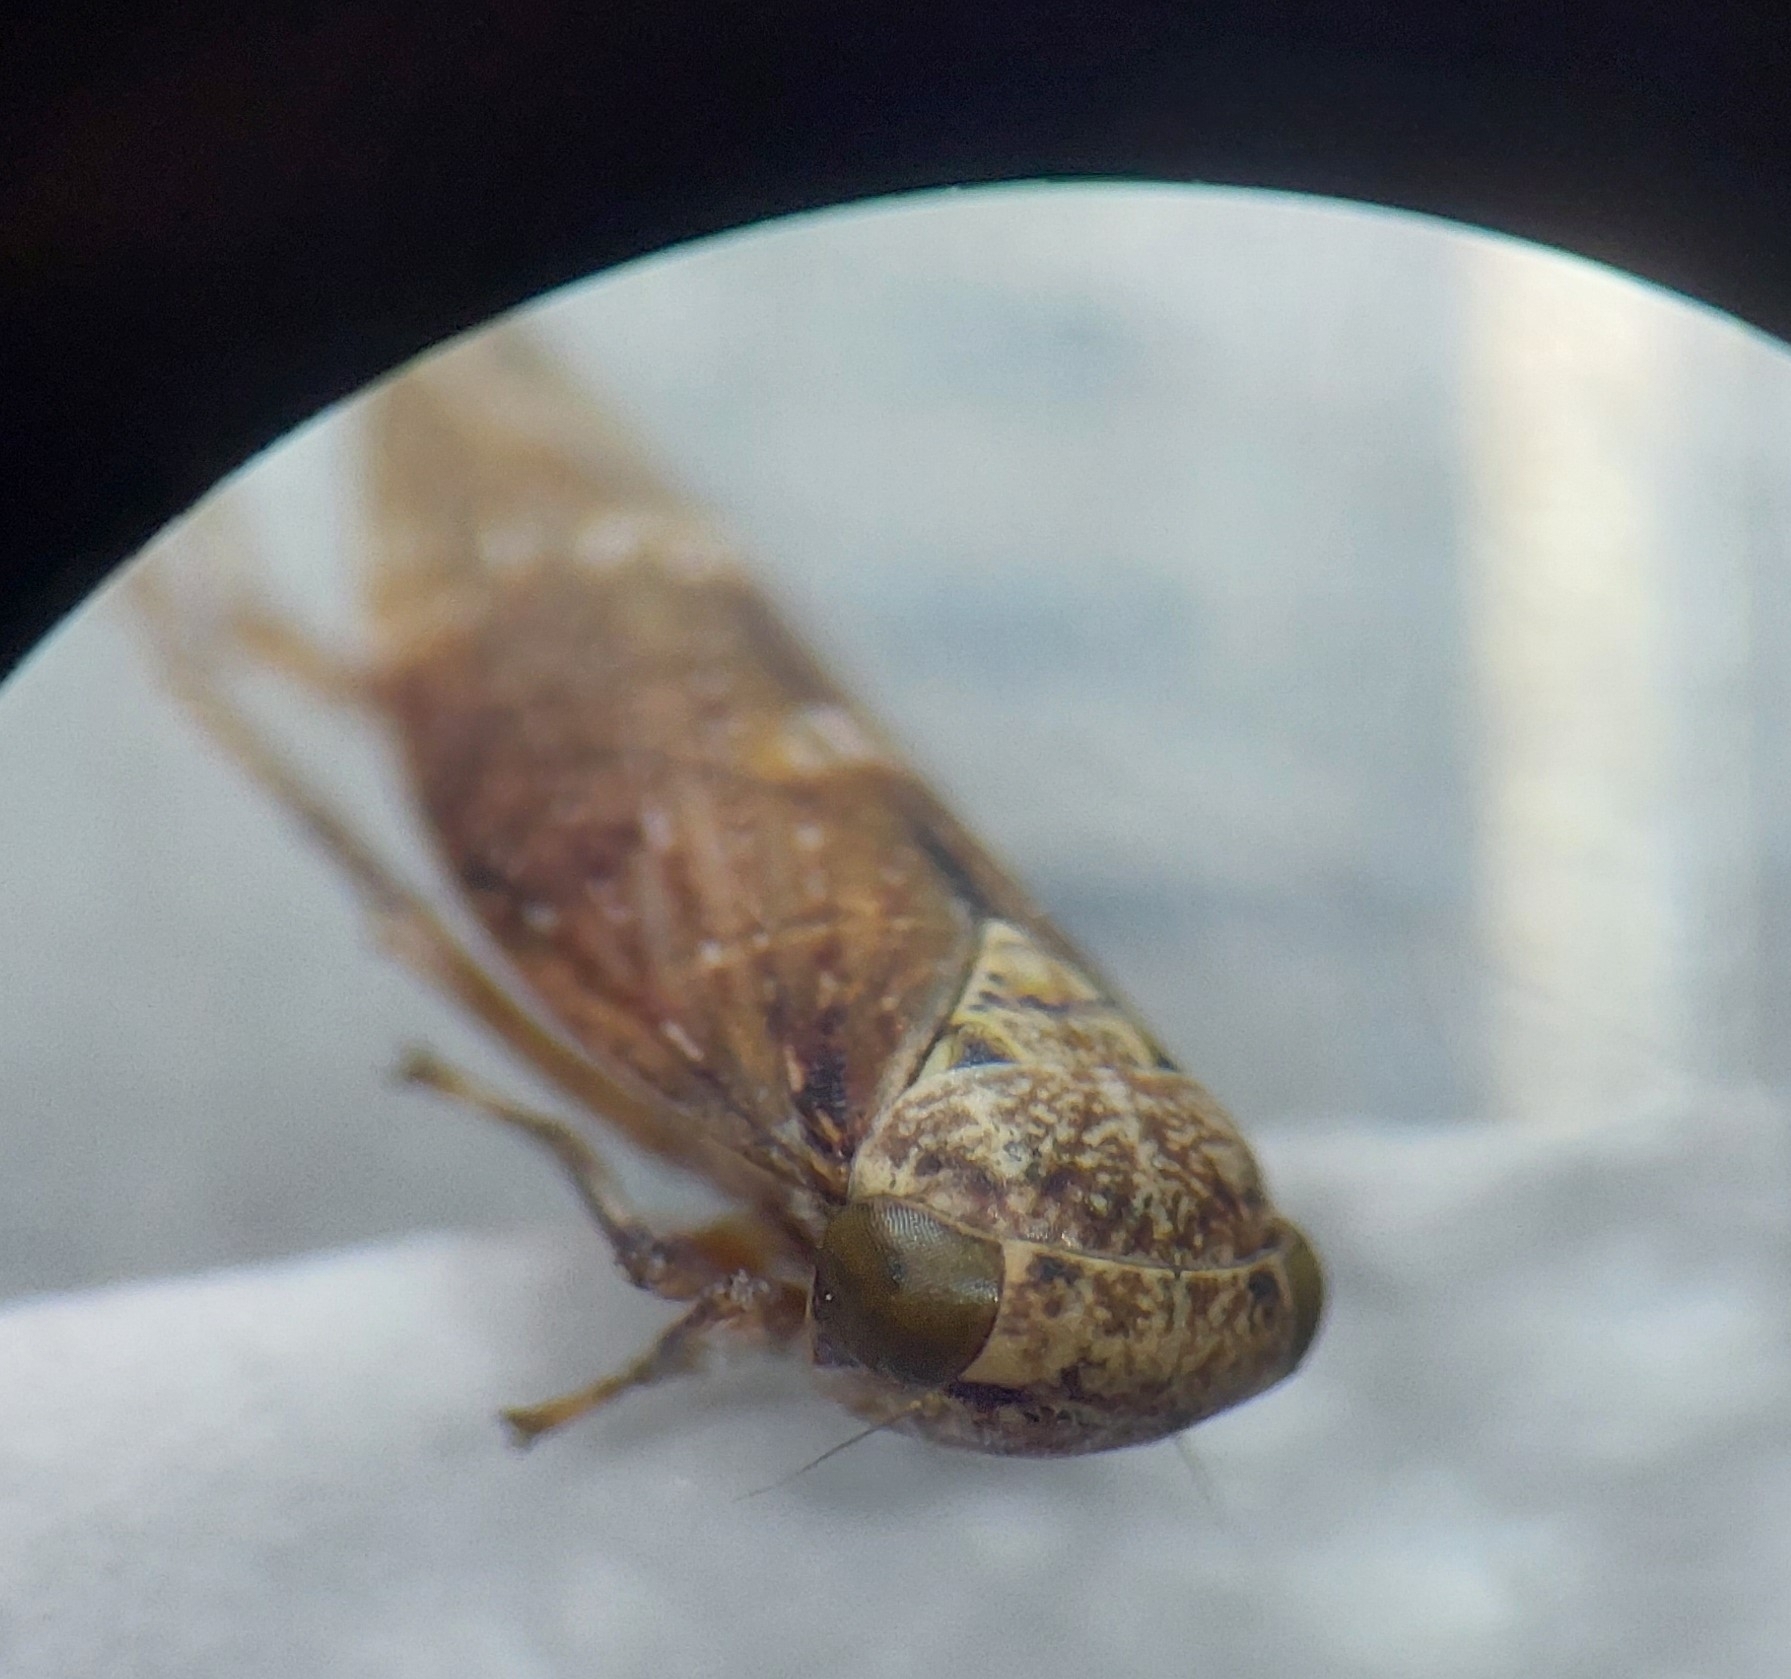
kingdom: Animalia
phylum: Arthropoda
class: Insecta
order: Hemiptera
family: Cicadellidae
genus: Acericerus
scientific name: Acericerus ribauti
